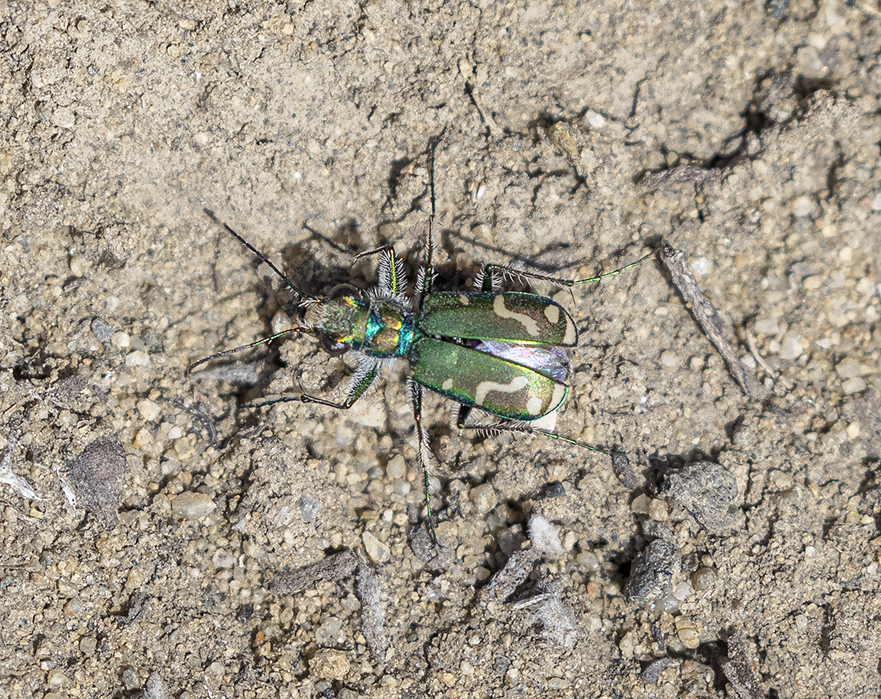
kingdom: Animalia
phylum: Arthropoda
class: Insecta
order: Coleoptera
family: Carabidae
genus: Cicindela
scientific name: Cicindela decemnotata
